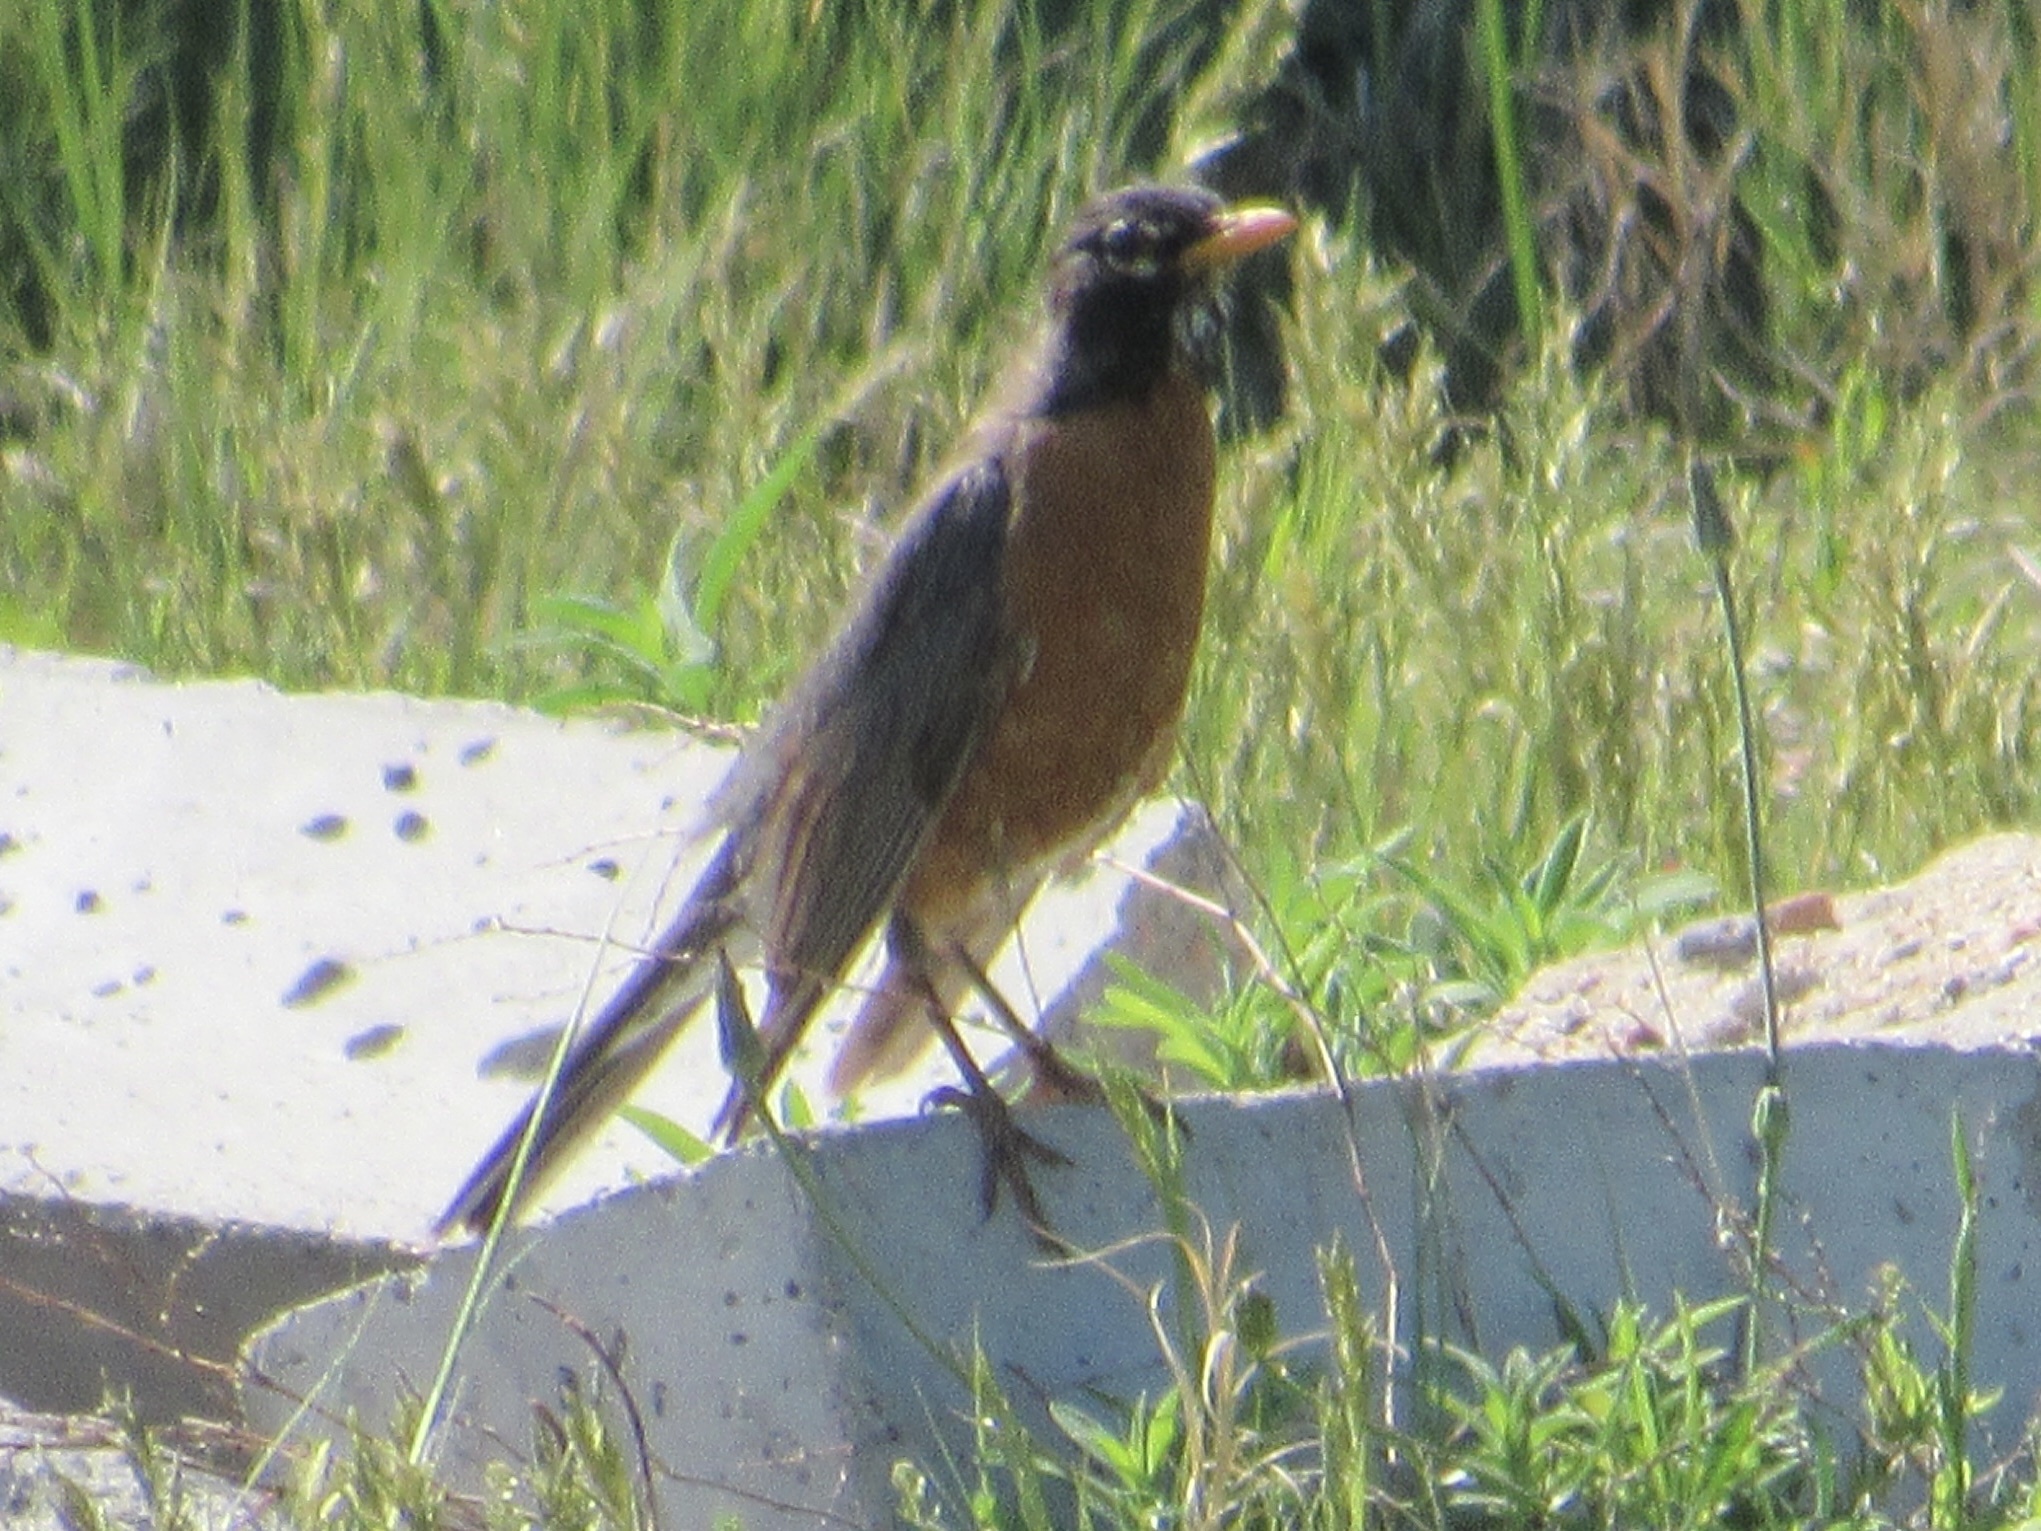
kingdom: Animalia
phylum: Chordata
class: Aves
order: Passeriformes
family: Turdidae
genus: Turdus
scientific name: Turdus migratorius
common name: American robin
